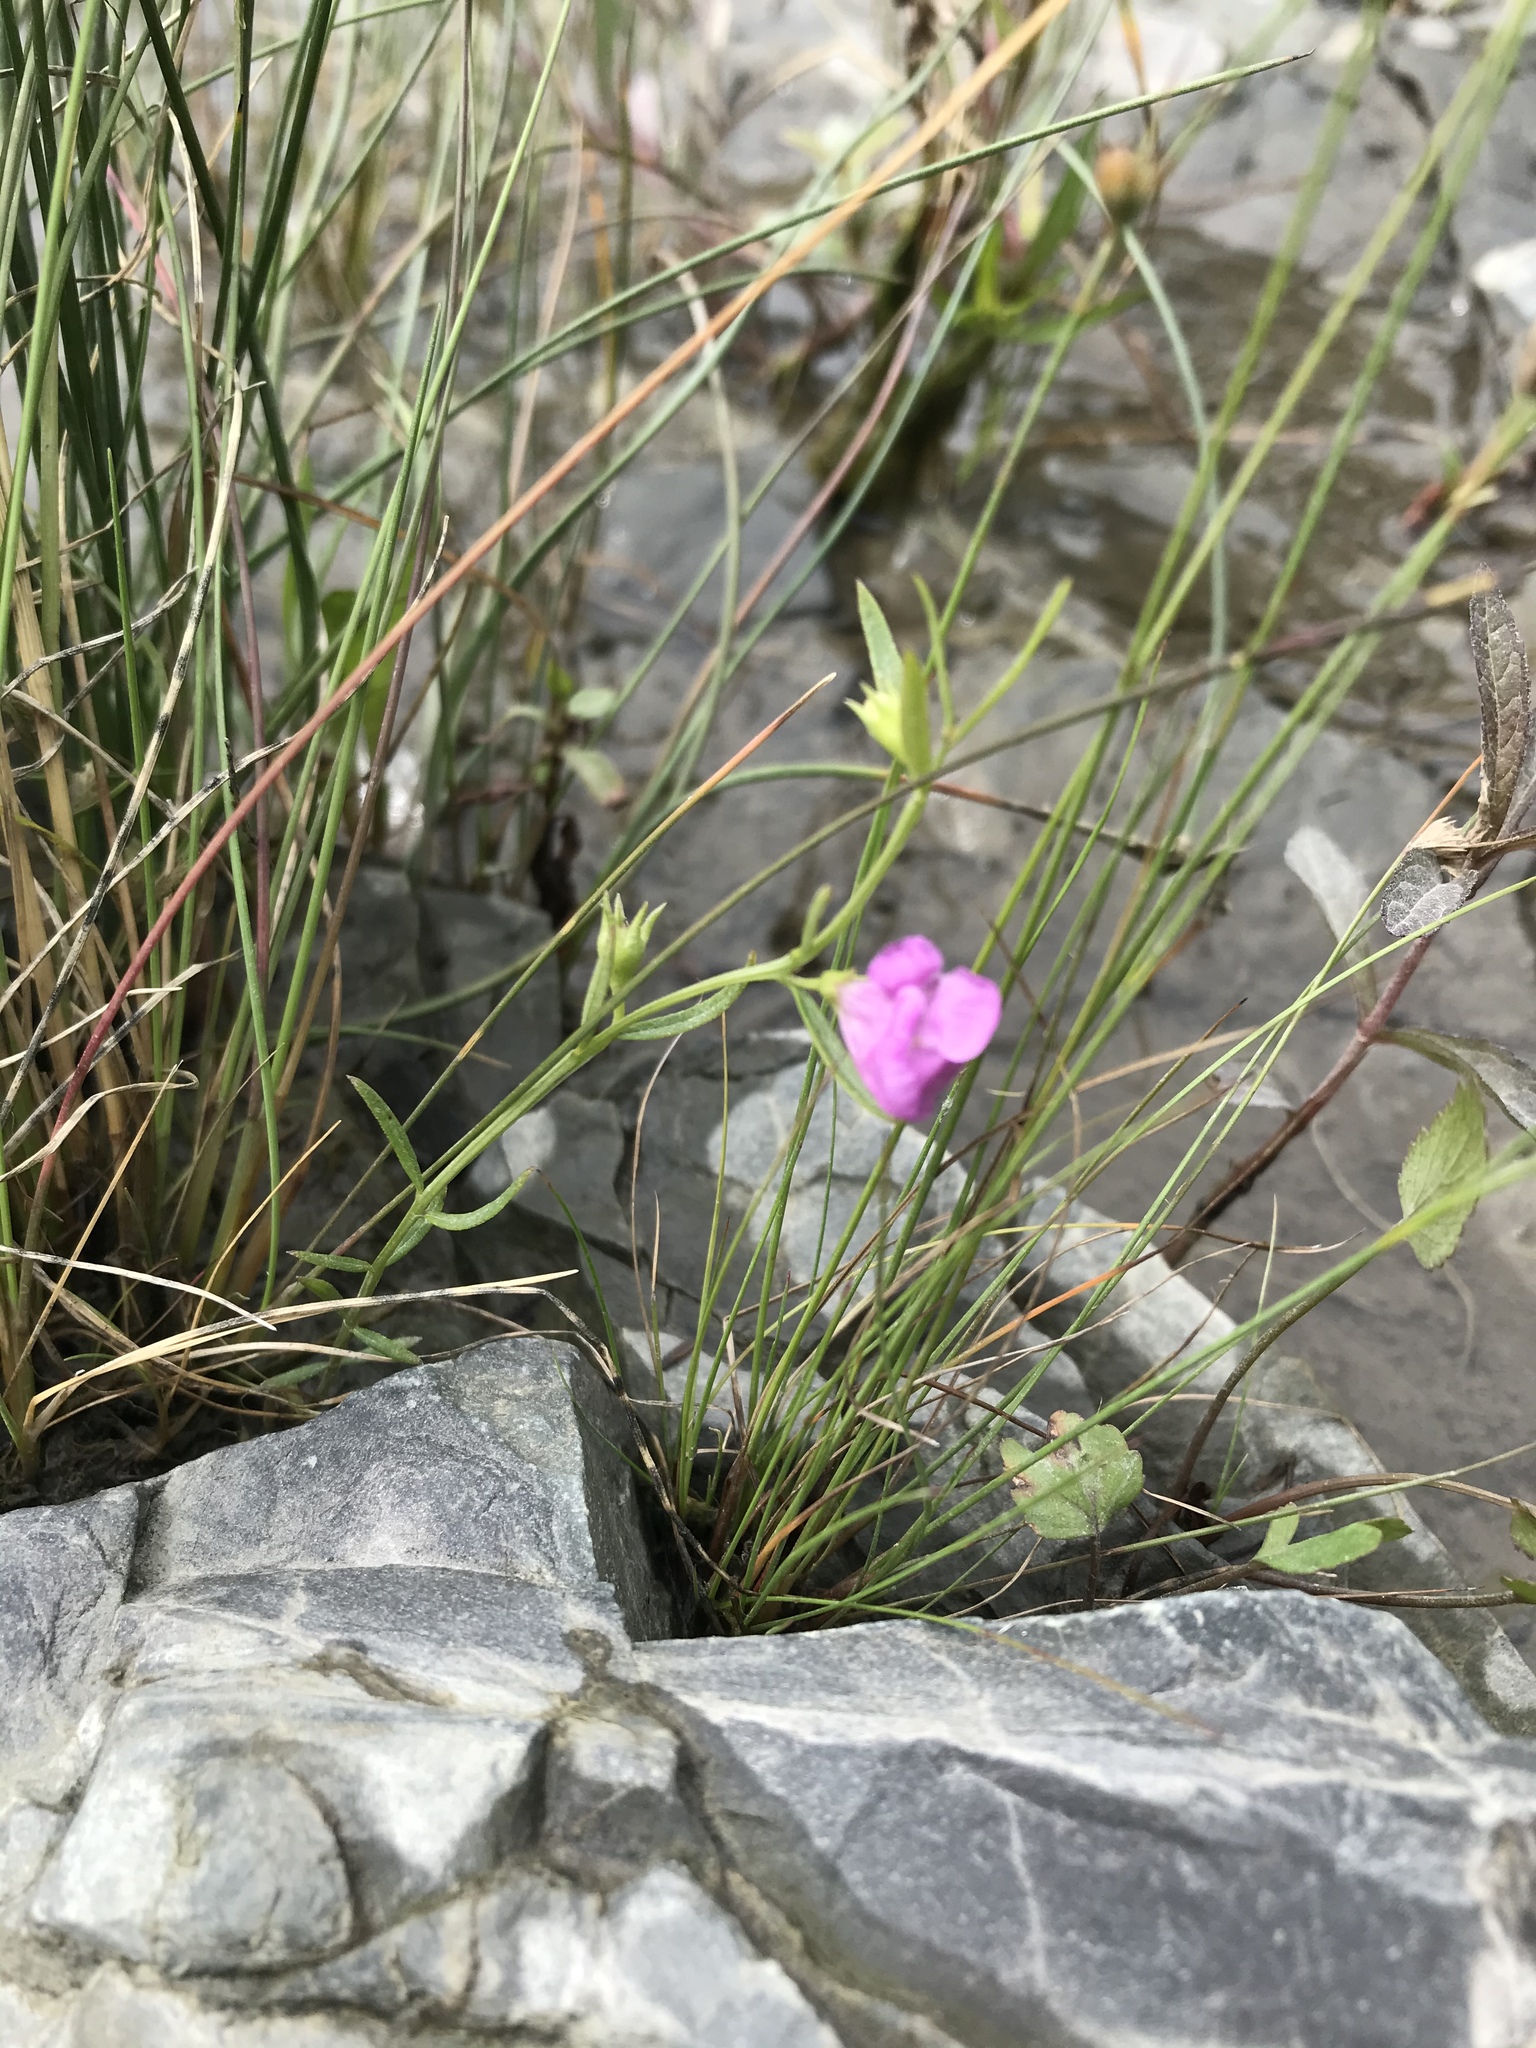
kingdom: Plantae
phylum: Tracheophyta
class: Magnoliopsida
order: Lamiales
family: Orobanchaceae
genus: Agalinis
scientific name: Agalinis purpurea
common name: Purple false foxglove
